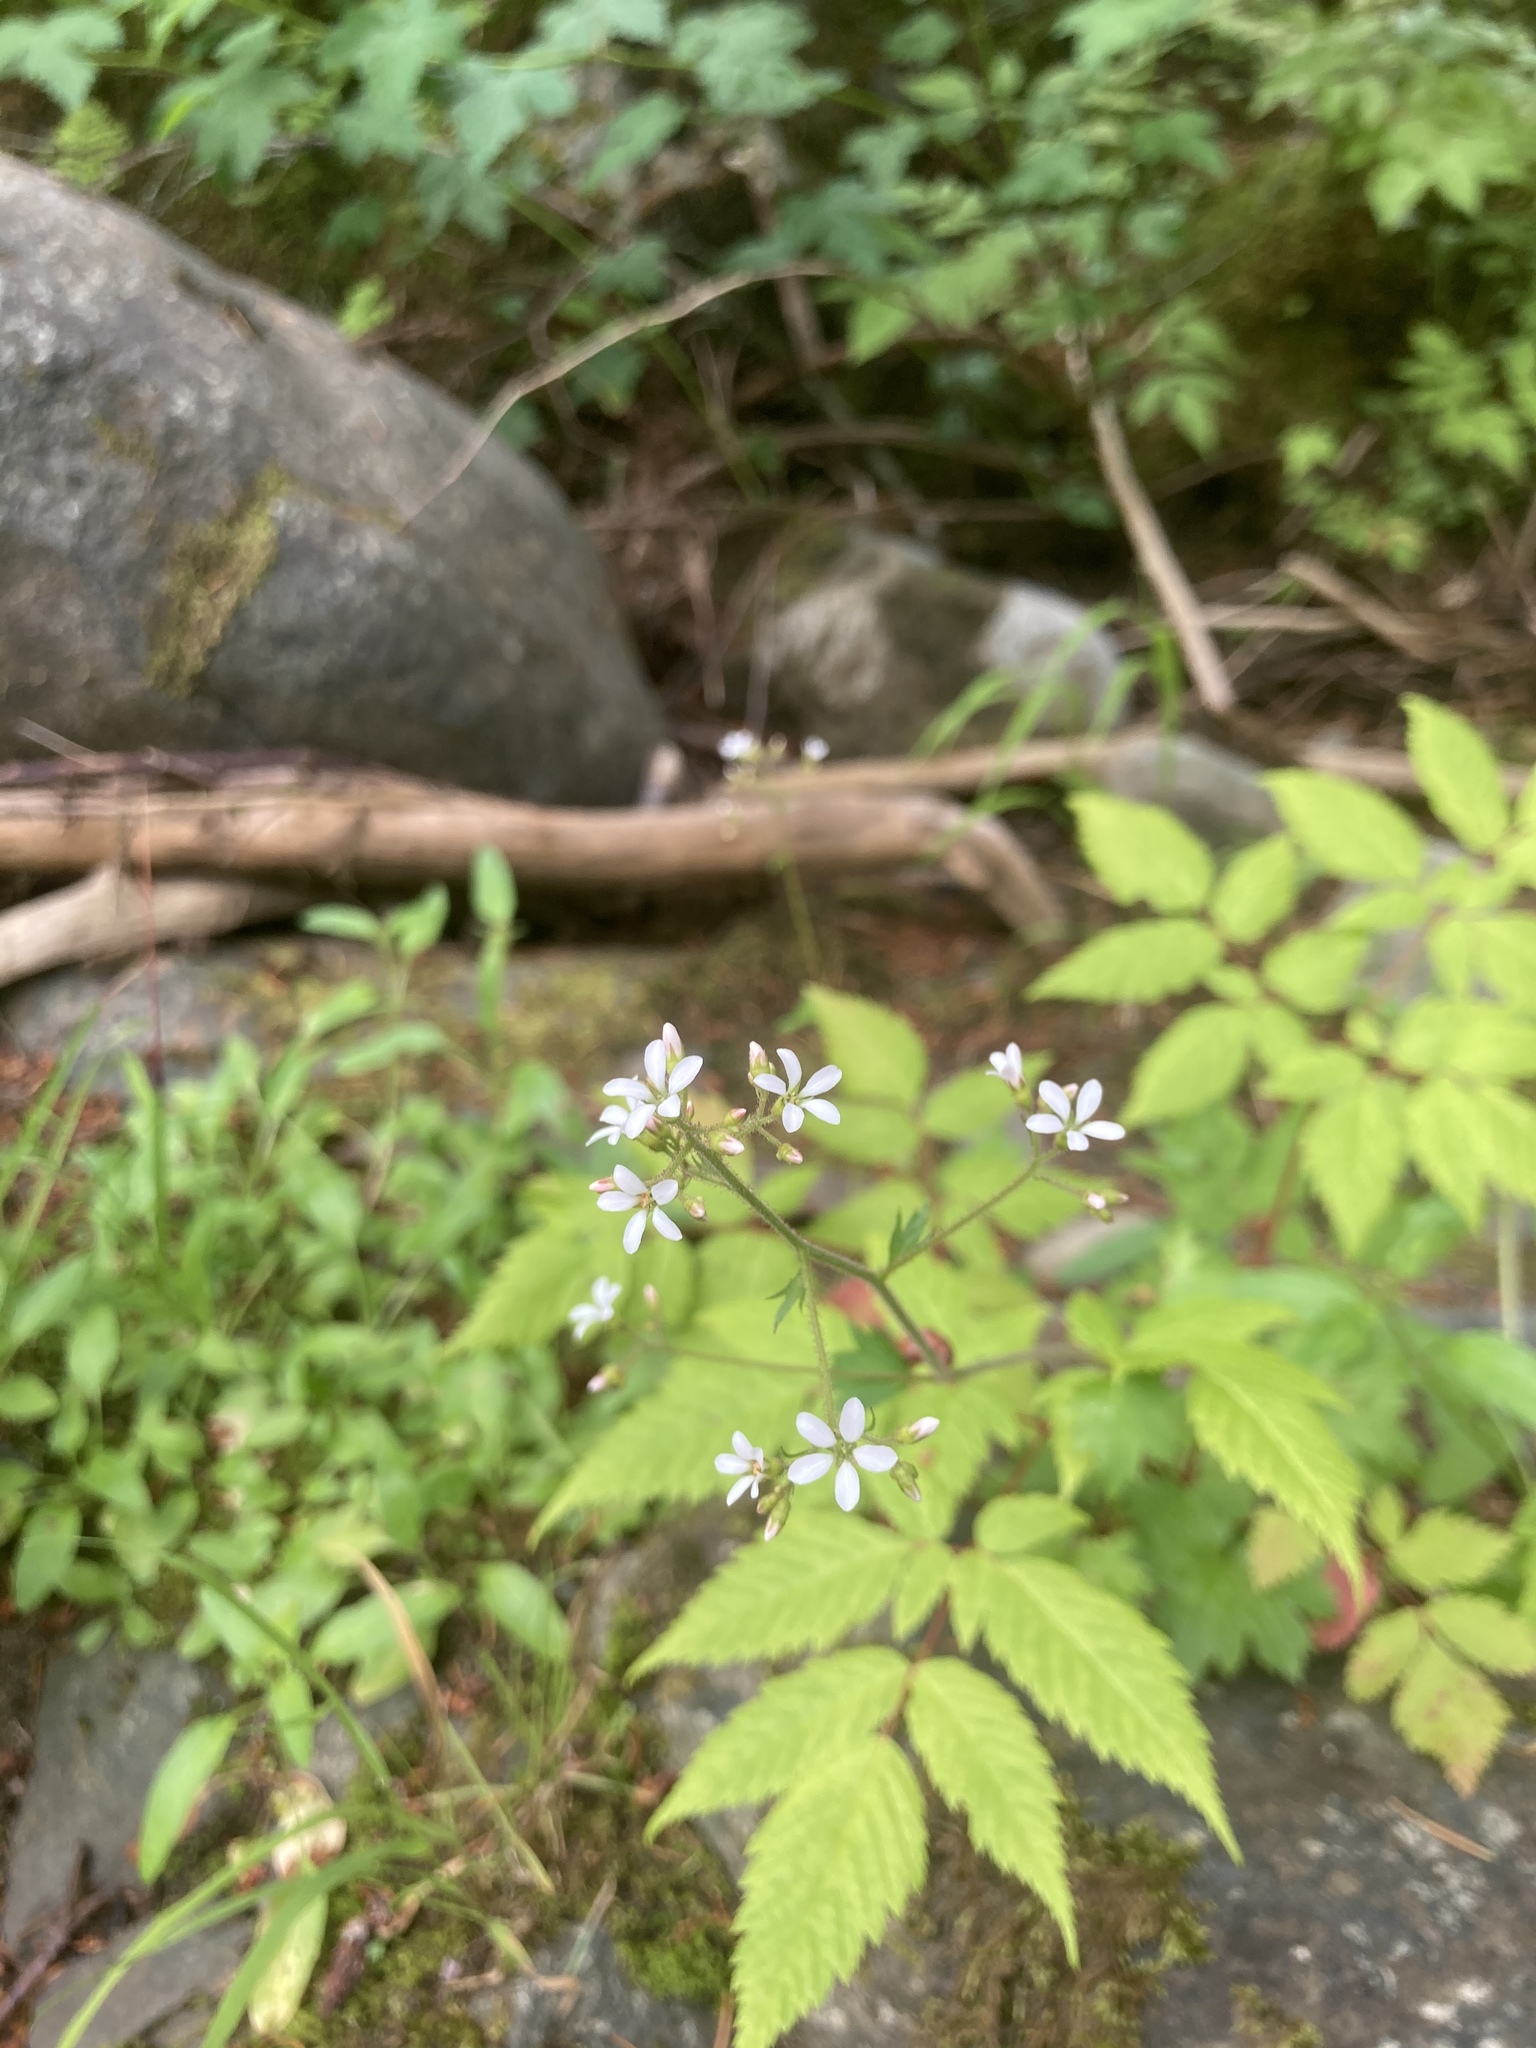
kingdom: Plantae
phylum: Tracheophyta
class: Magnoliopsida
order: Saxifragales
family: Saxifragaceae
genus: Boykinia
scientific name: Boykinia occidentalis
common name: Coast boykinia
